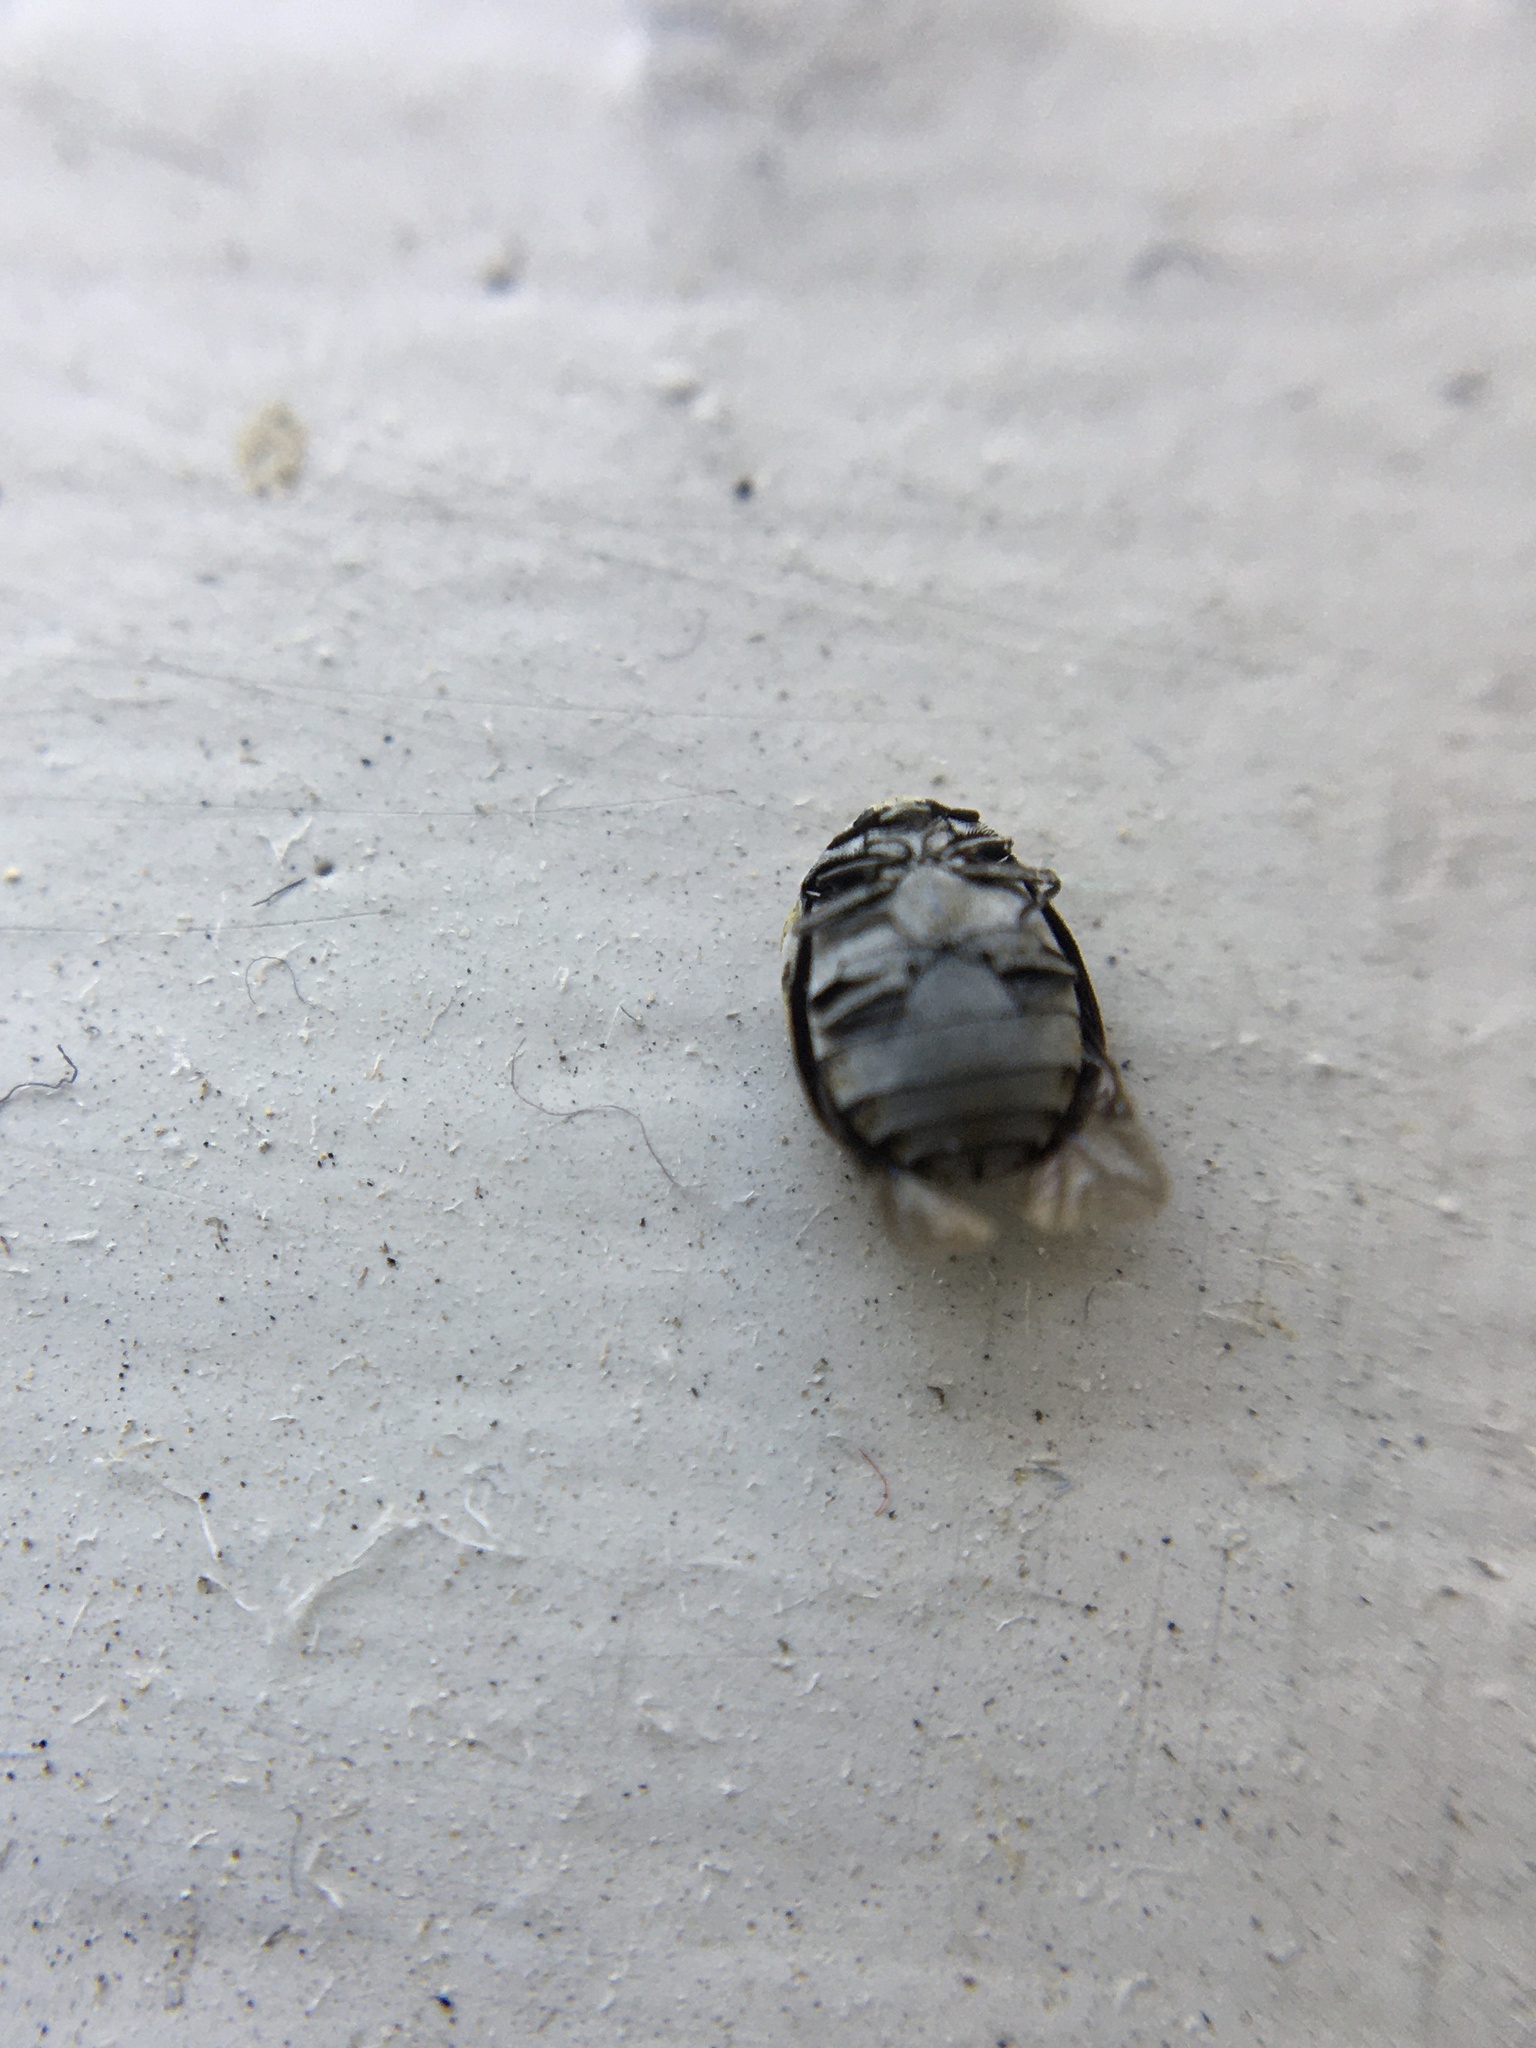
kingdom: Animalia
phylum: Arthropoda
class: Insecta
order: Coleoptera
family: Dermestidae
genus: Anthrenus
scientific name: Anthrenus verbasci
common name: Varied carpet beetle
